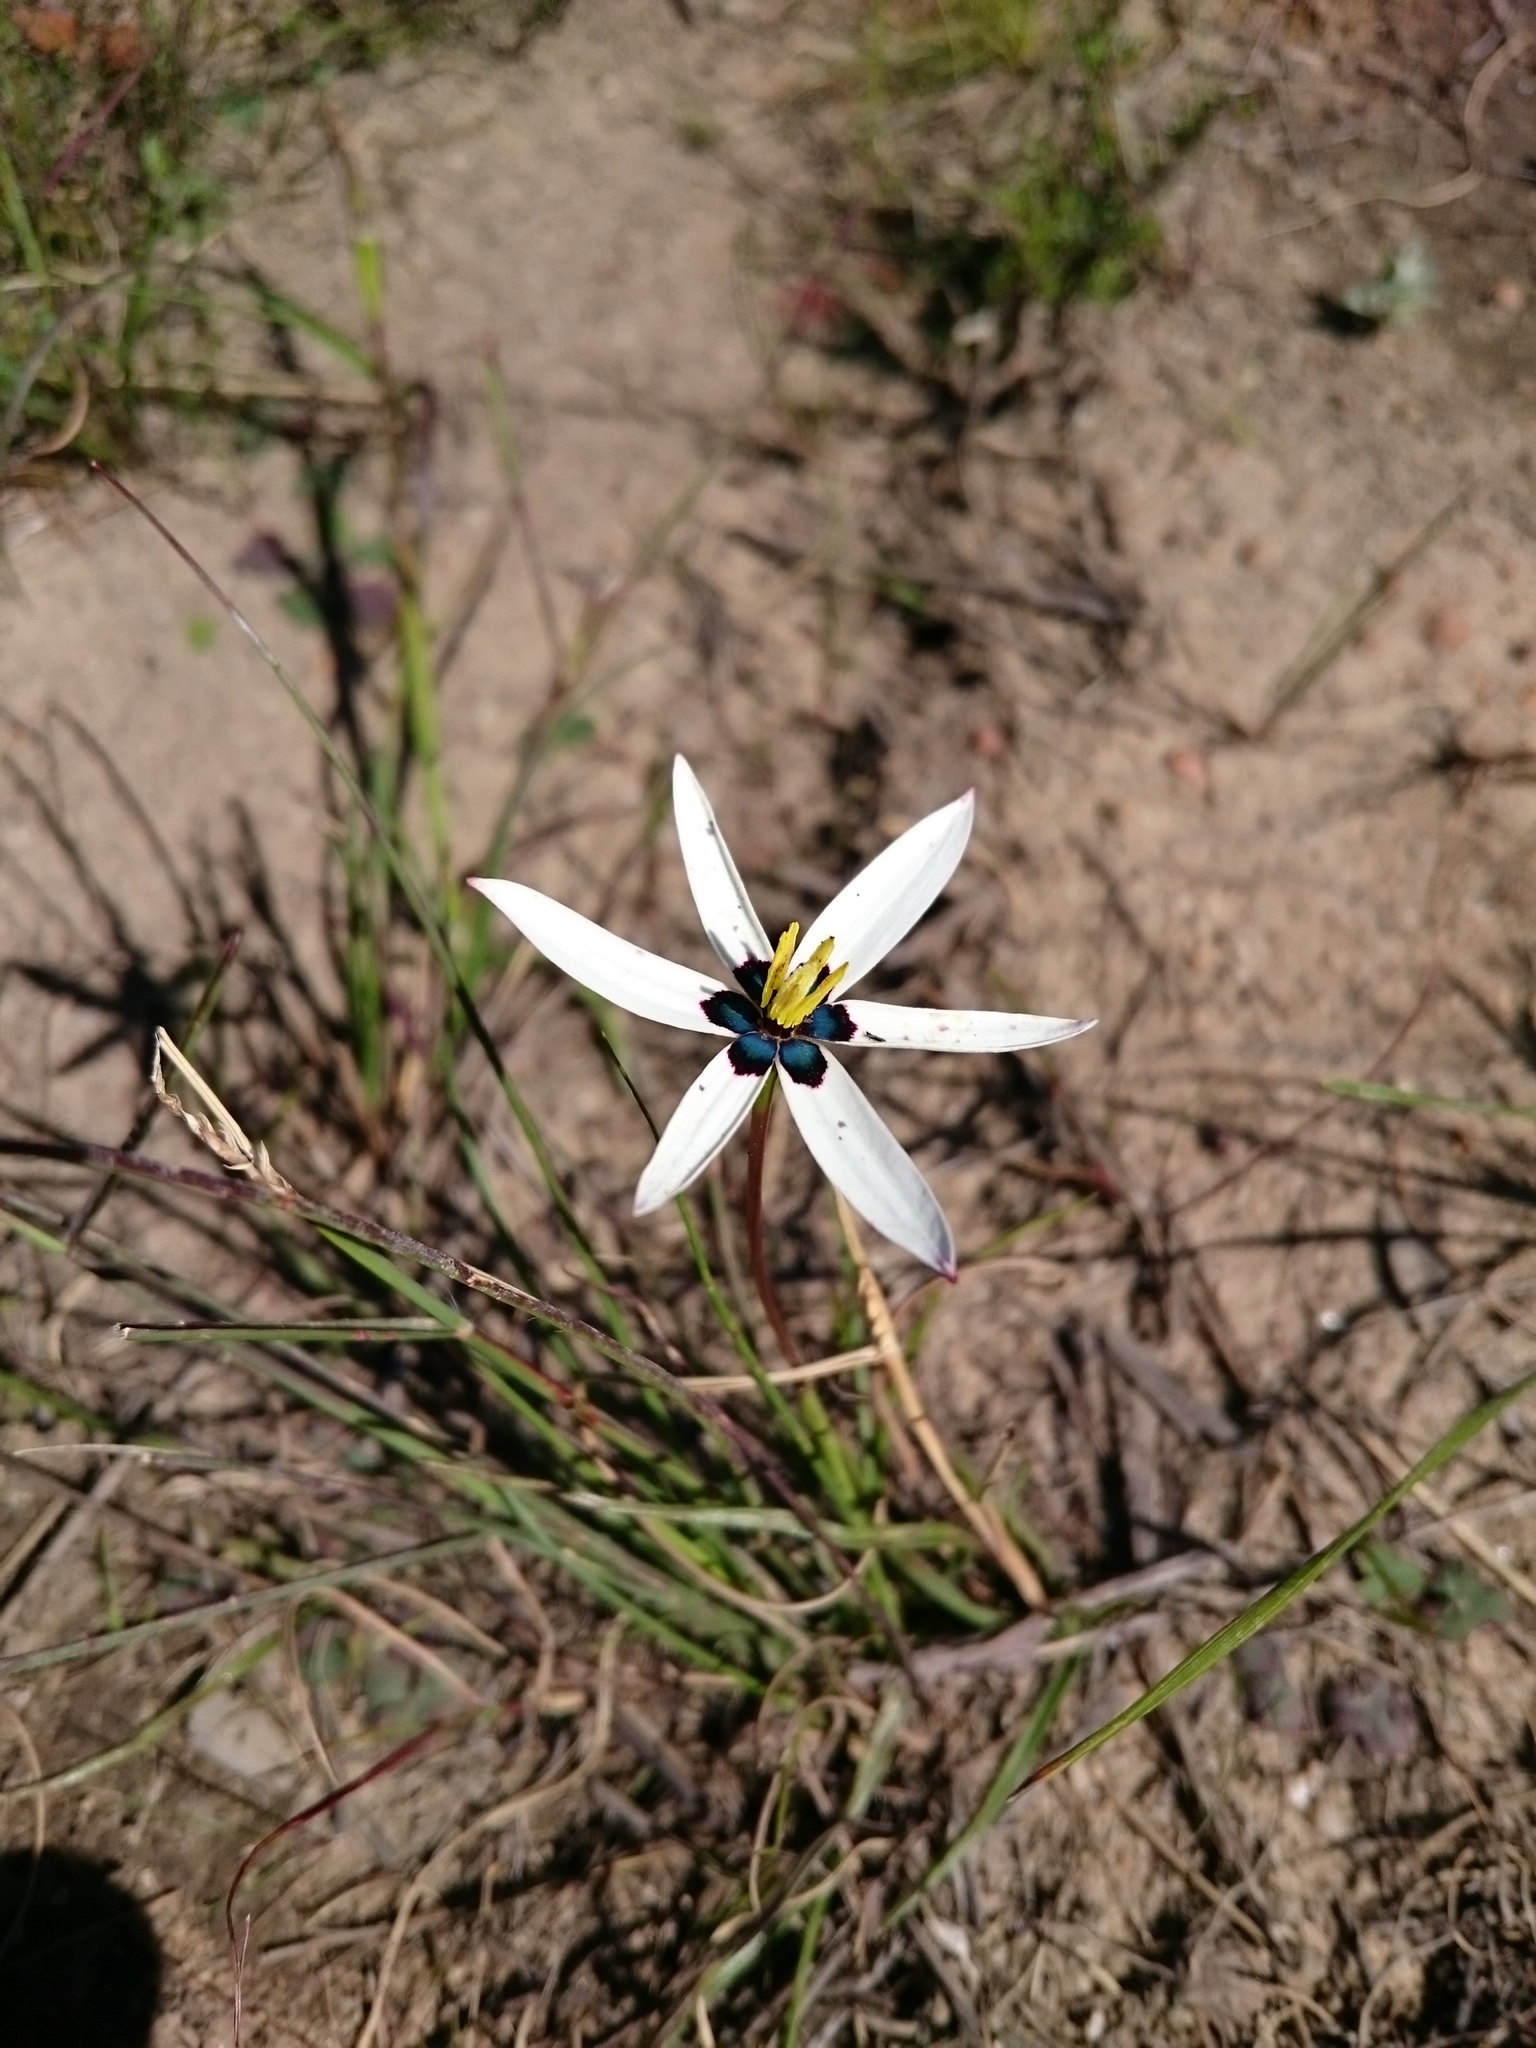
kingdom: Plantae
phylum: Tracheophyta
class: Liliopsida
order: Asparagales
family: Hypoxidaceae
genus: Pauridia
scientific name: Pauridia capensis
